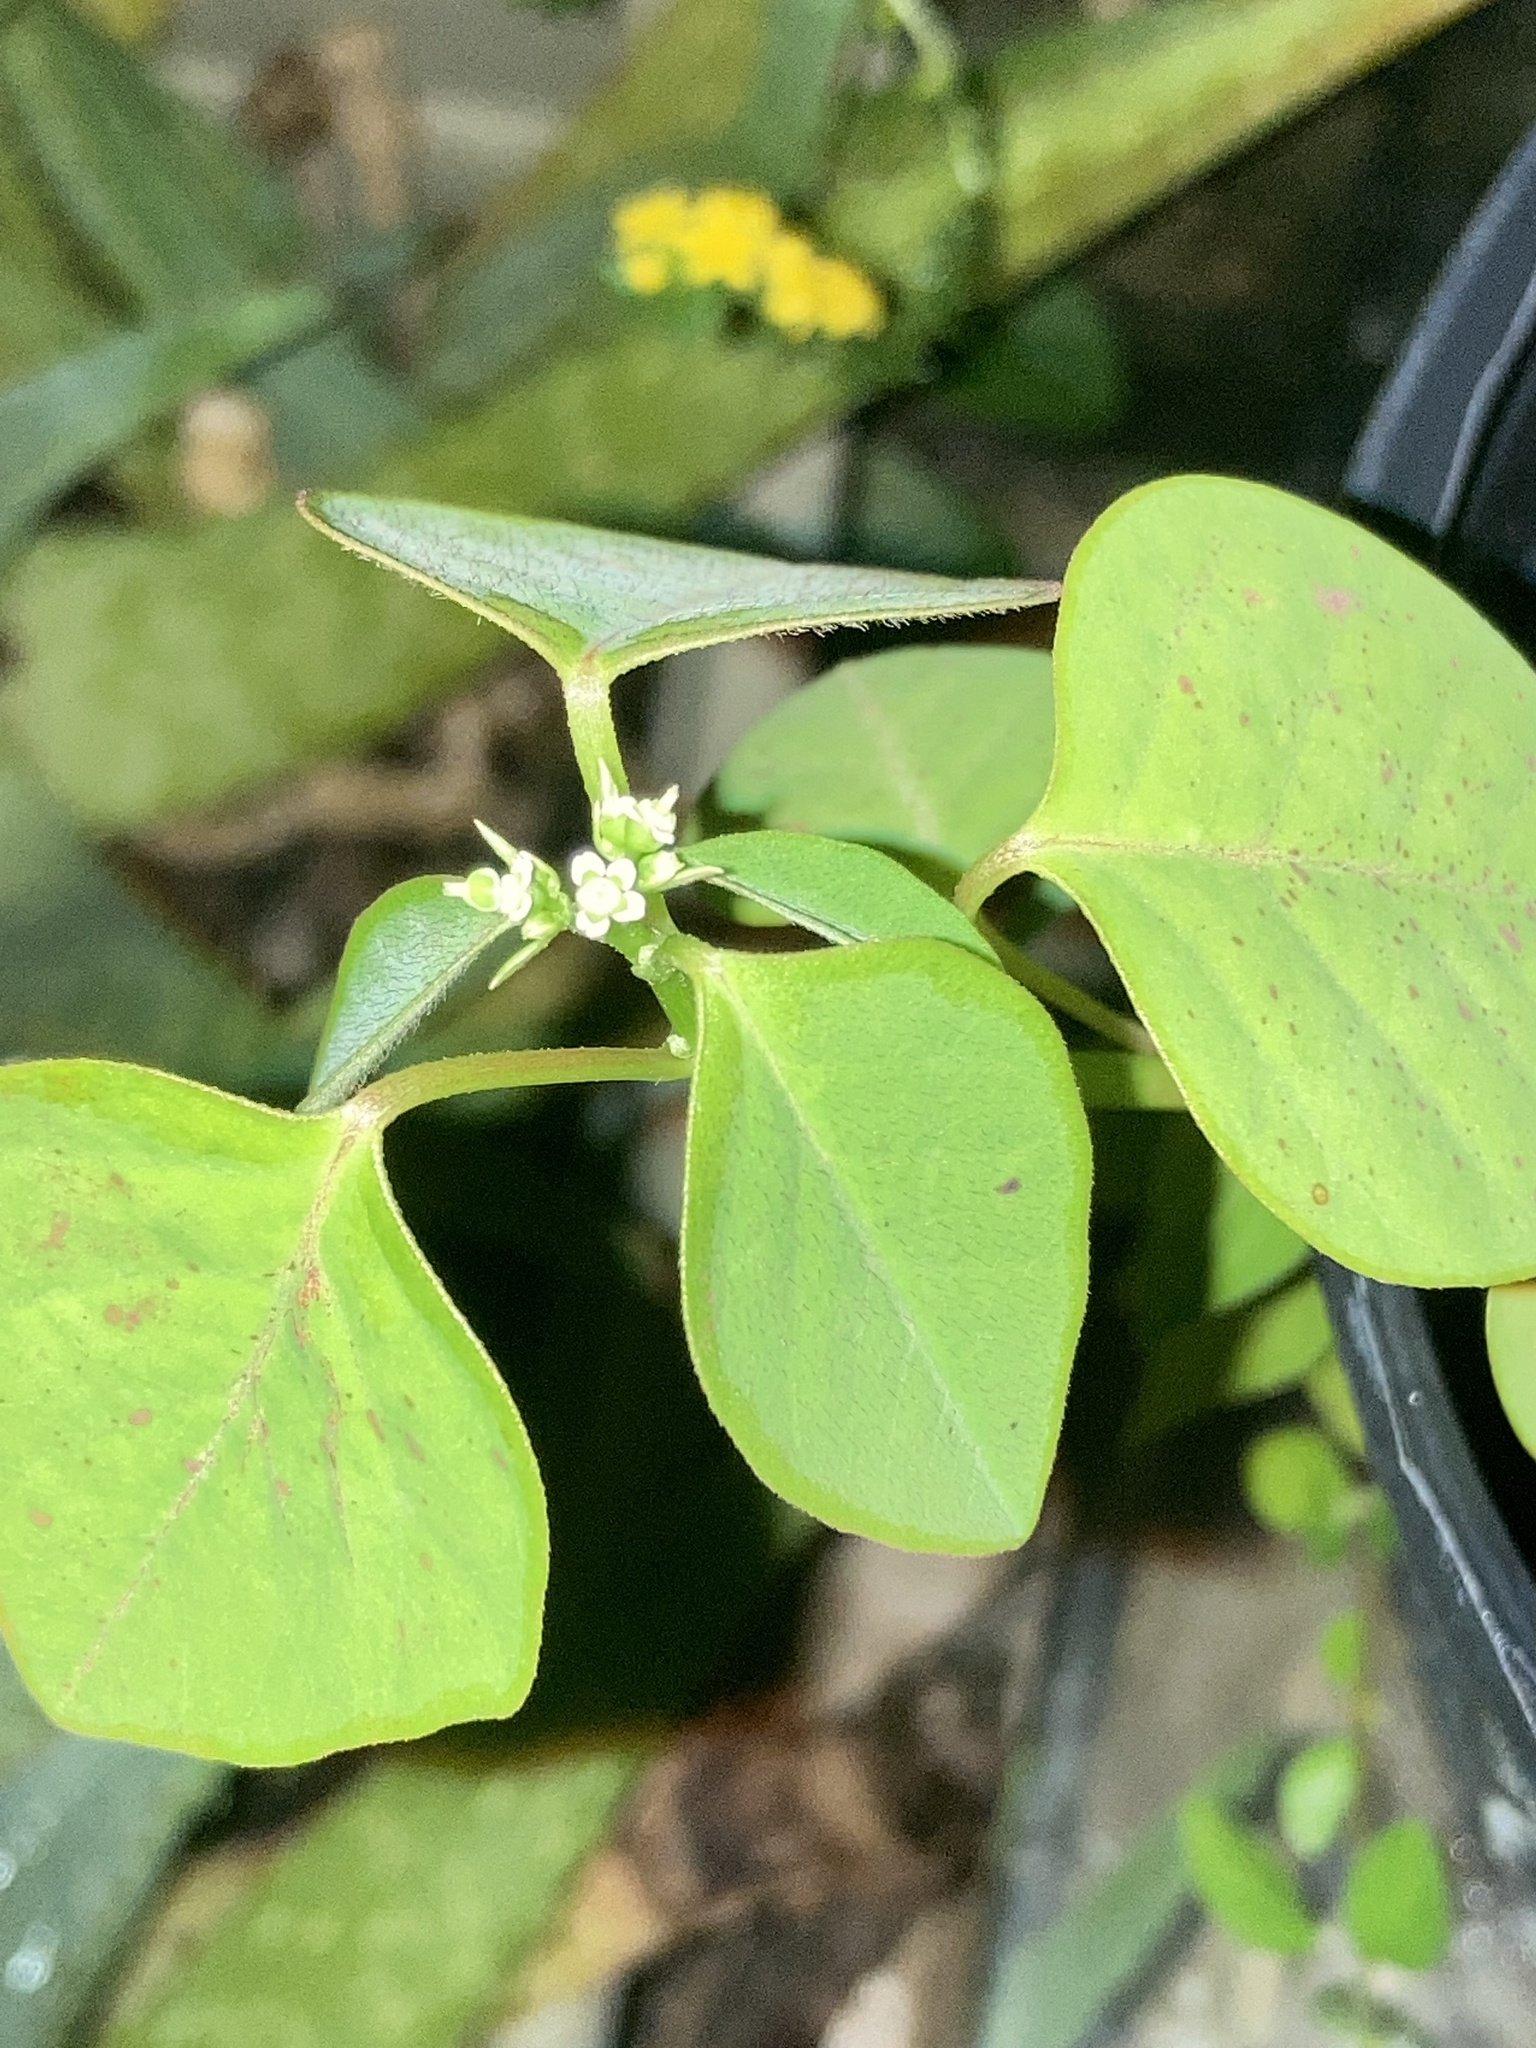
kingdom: Plantae
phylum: Tracheophyta
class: Magnoliopsida
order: Malpighiales
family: Euphorbiaceae
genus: Euphorbia
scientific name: Euphorbia graminea
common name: Grassleaf spurge
